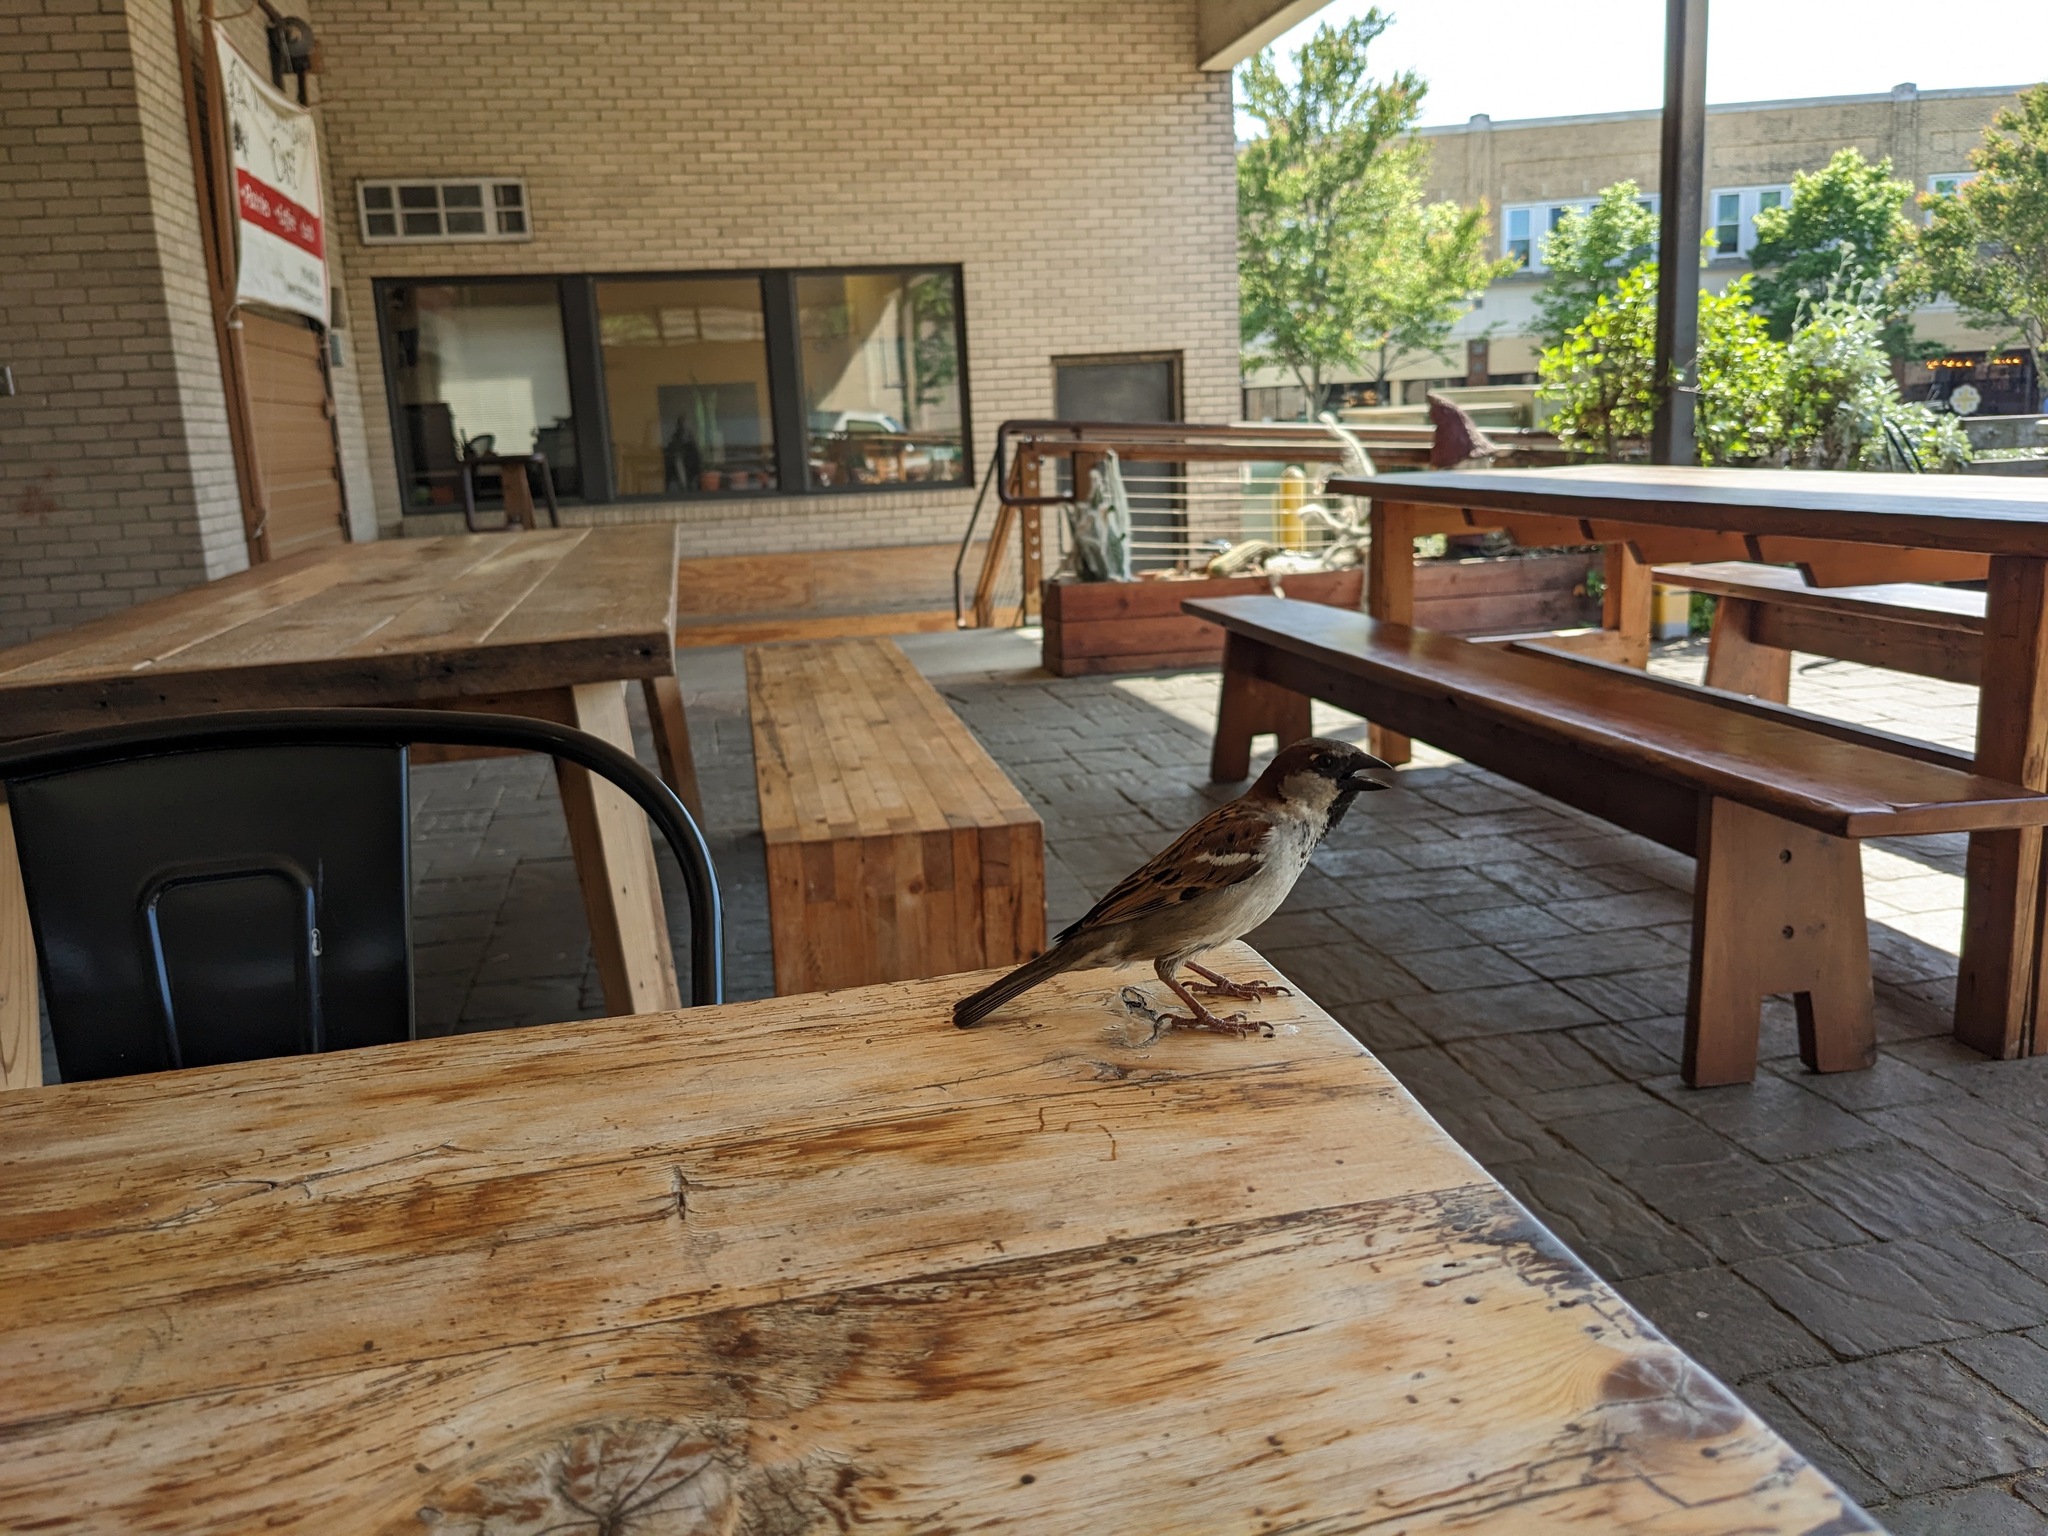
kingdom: Animalia
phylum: Chordata
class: Aves
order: Passeriformes
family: Passeridae
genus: Passer
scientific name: Passer domesticus
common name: House sparrow
